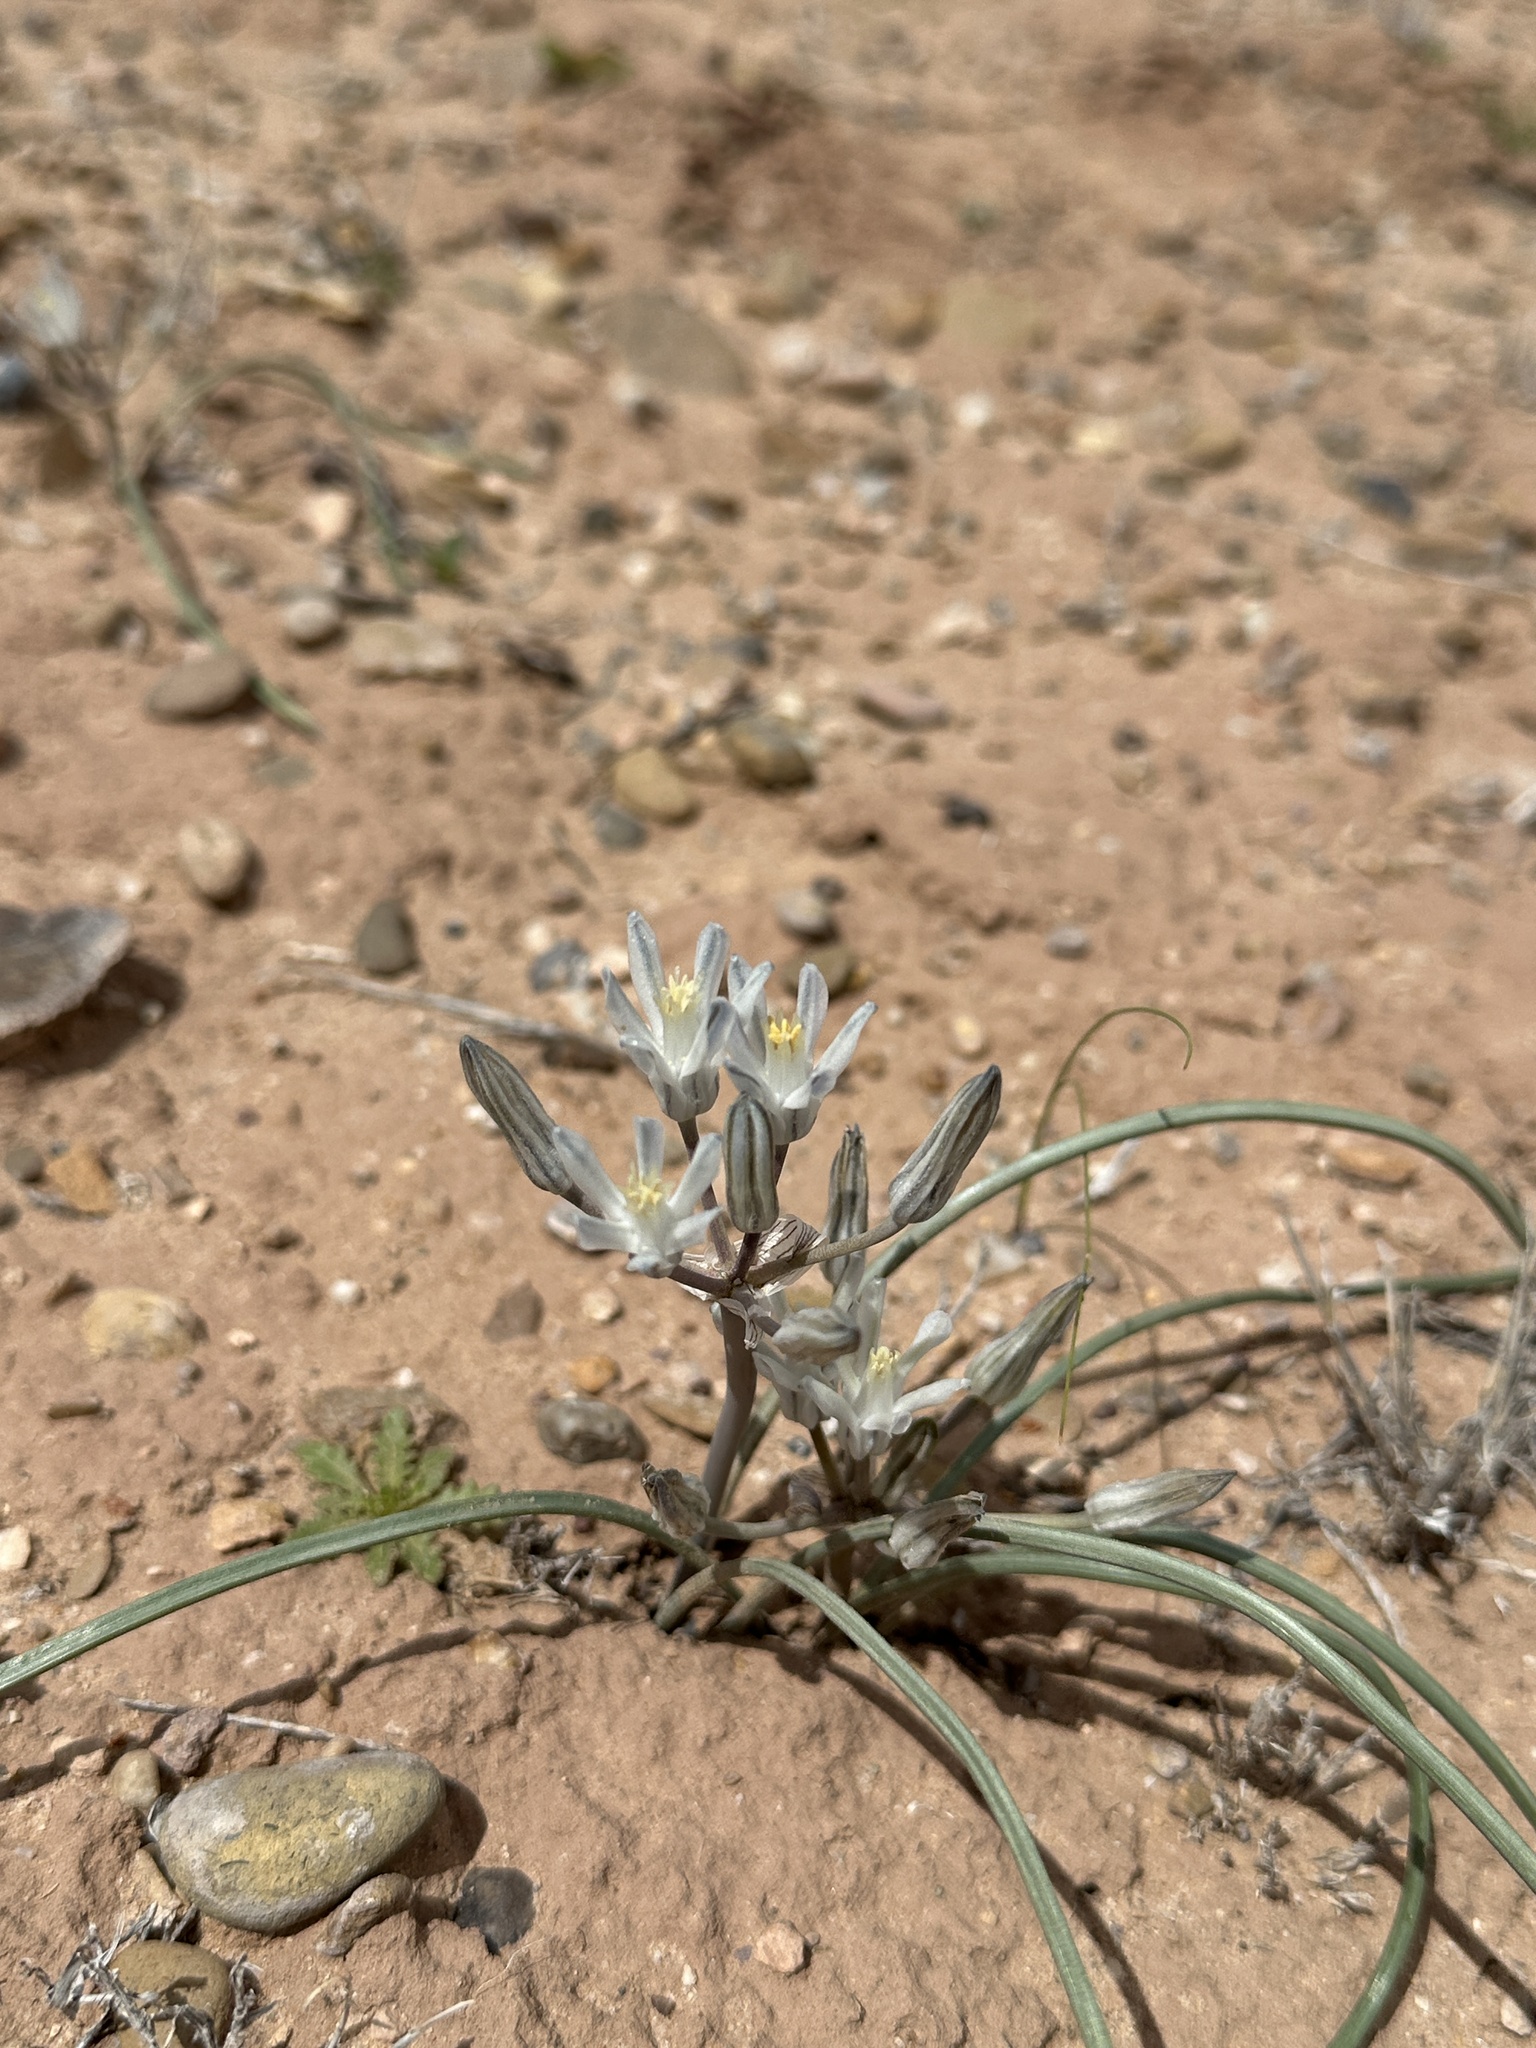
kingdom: Plantae
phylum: Tracheophyta
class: Liliopsida
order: Asparagales
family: Asparagaceae
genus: Androstephium
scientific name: Androstephium breviflorum
